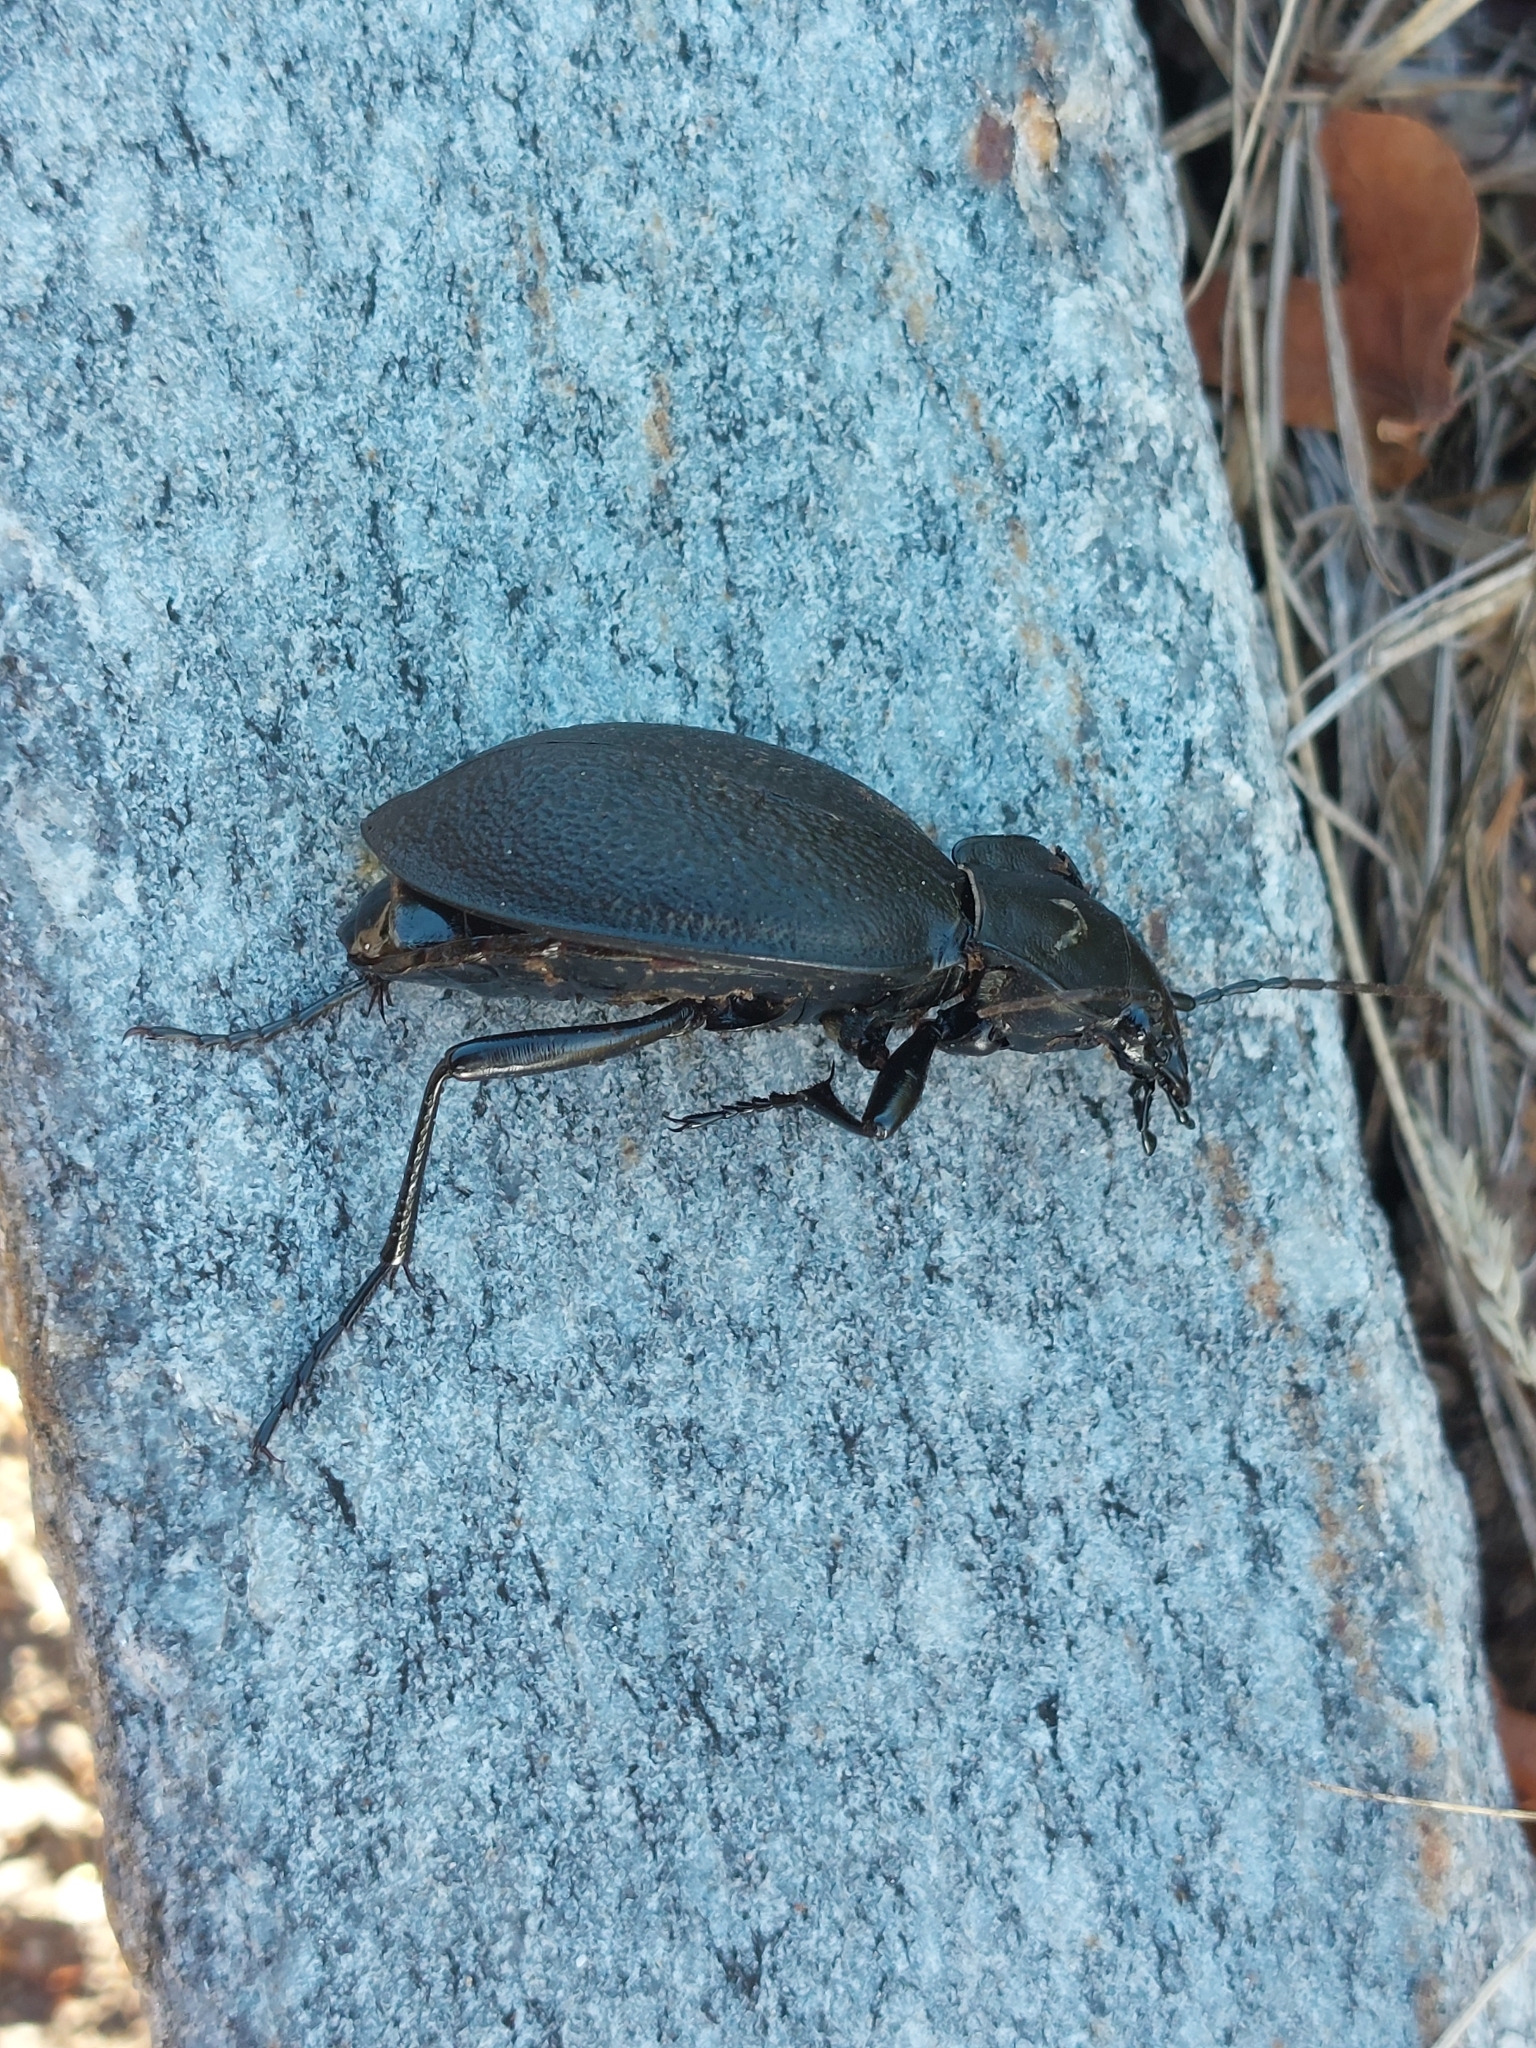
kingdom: Animalia
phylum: Arthropoda
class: Insecta
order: Coleoptera
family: Carabidae
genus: Carabus
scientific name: Carabus coriaceus
